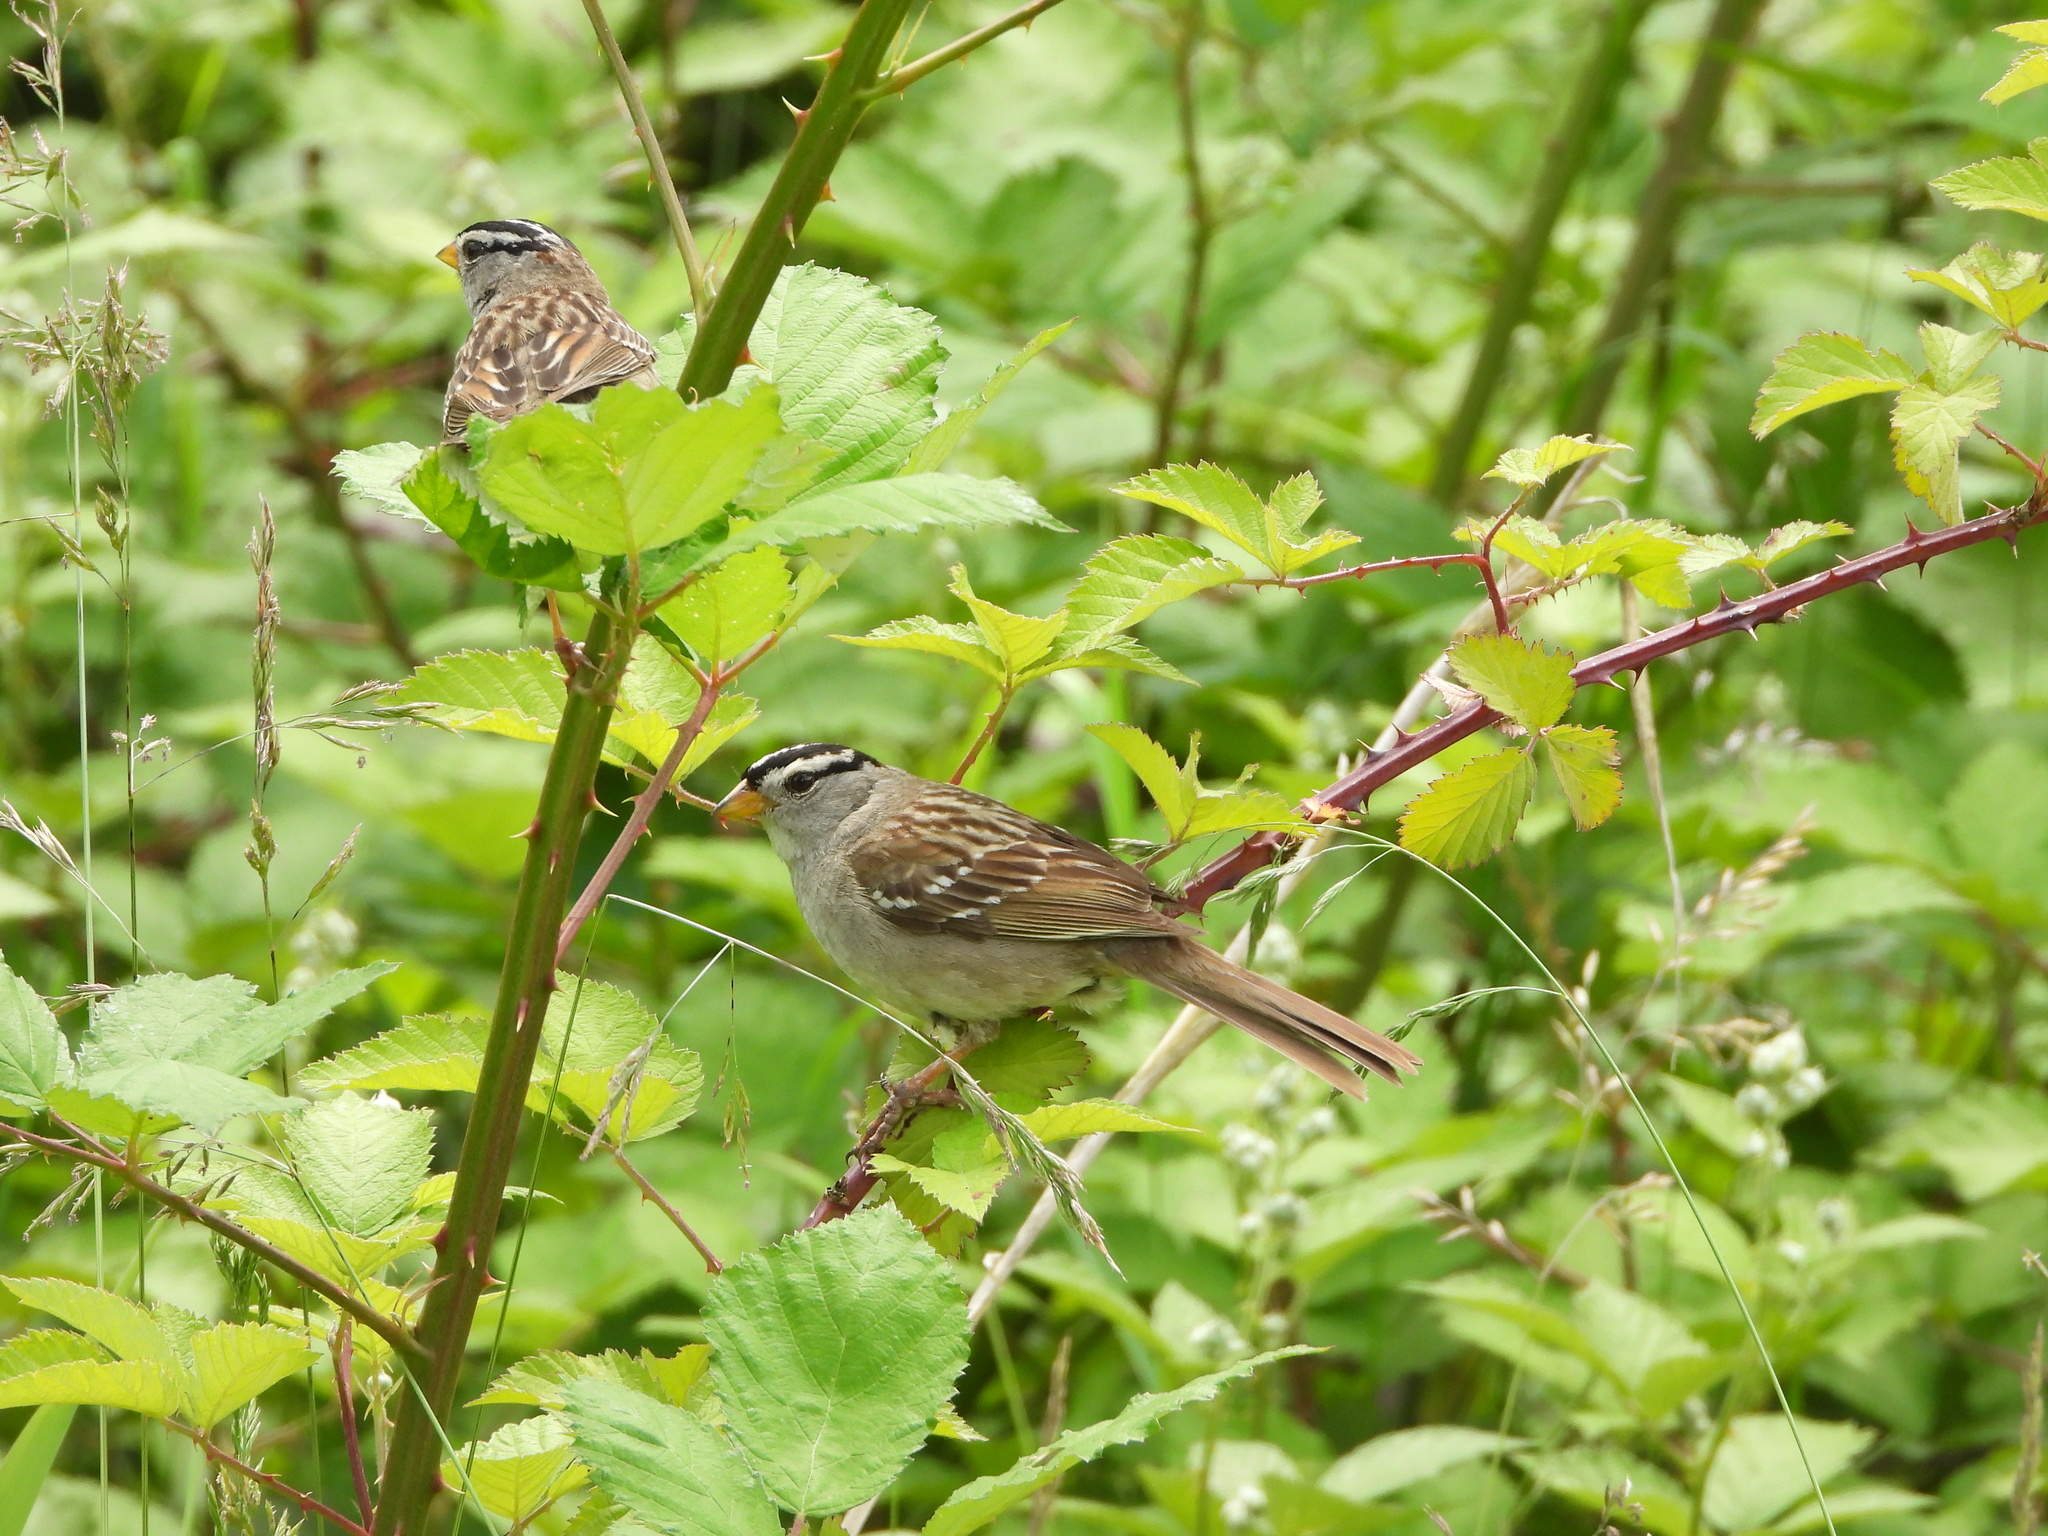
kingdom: Animalia
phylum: Chordata
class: Aves
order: Passeriformes
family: Passerellidae
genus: Zonotrichia
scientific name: Zonotrichia leucophrys
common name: White-crowned sparrow
